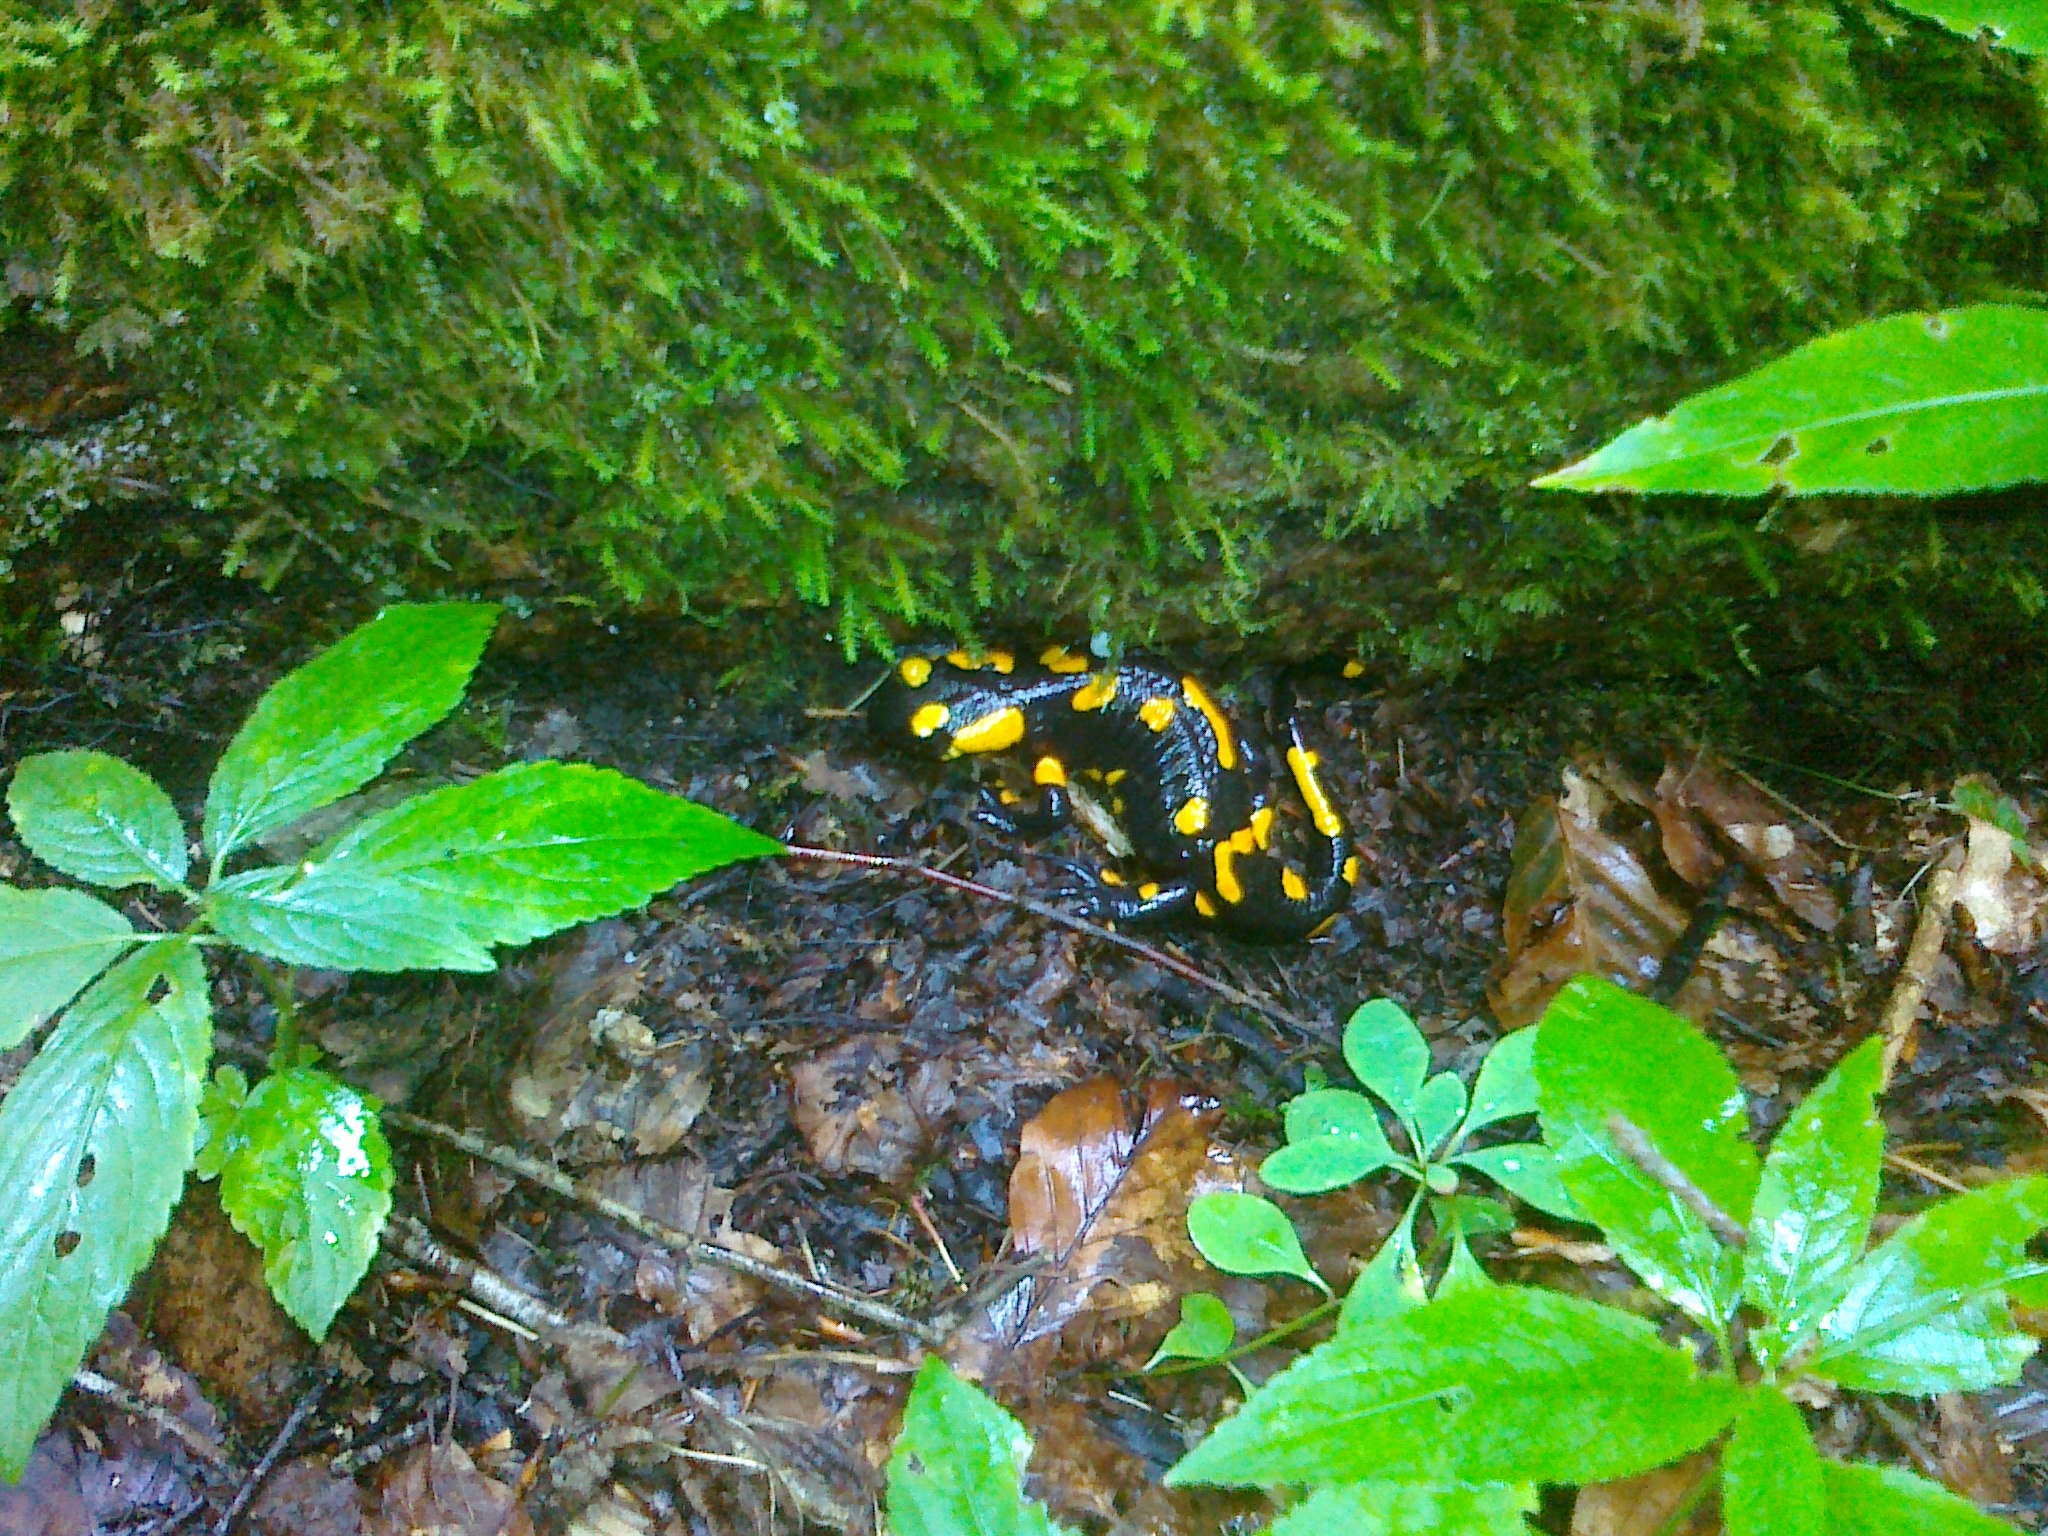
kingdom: Animalia
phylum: Chordata
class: Amphibia
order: Caudata
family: Salamandridae
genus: Salamandra
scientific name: Salamandra salamandra
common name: Fire salamander
